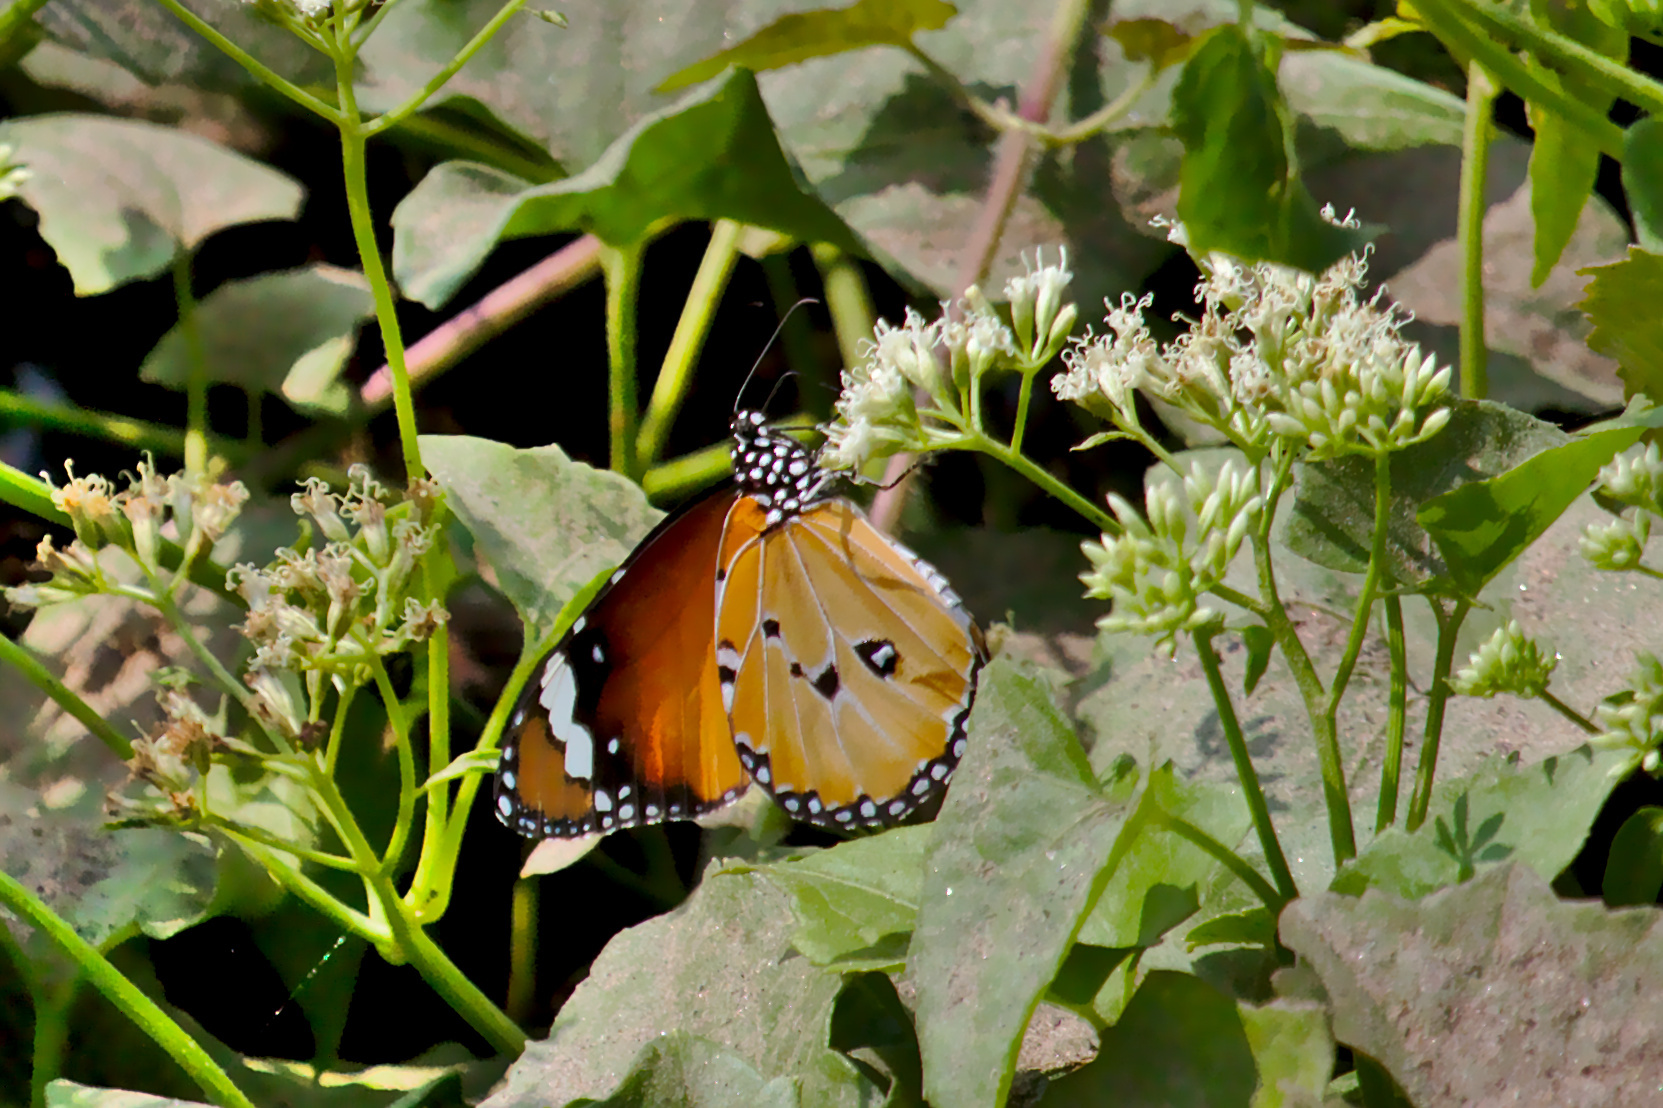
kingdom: Animalia
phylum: Arthropoda
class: Insecta
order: Lepidoptera
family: Nymphalidae
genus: Danaus
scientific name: Danaus chrysippus
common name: Plain tiger
